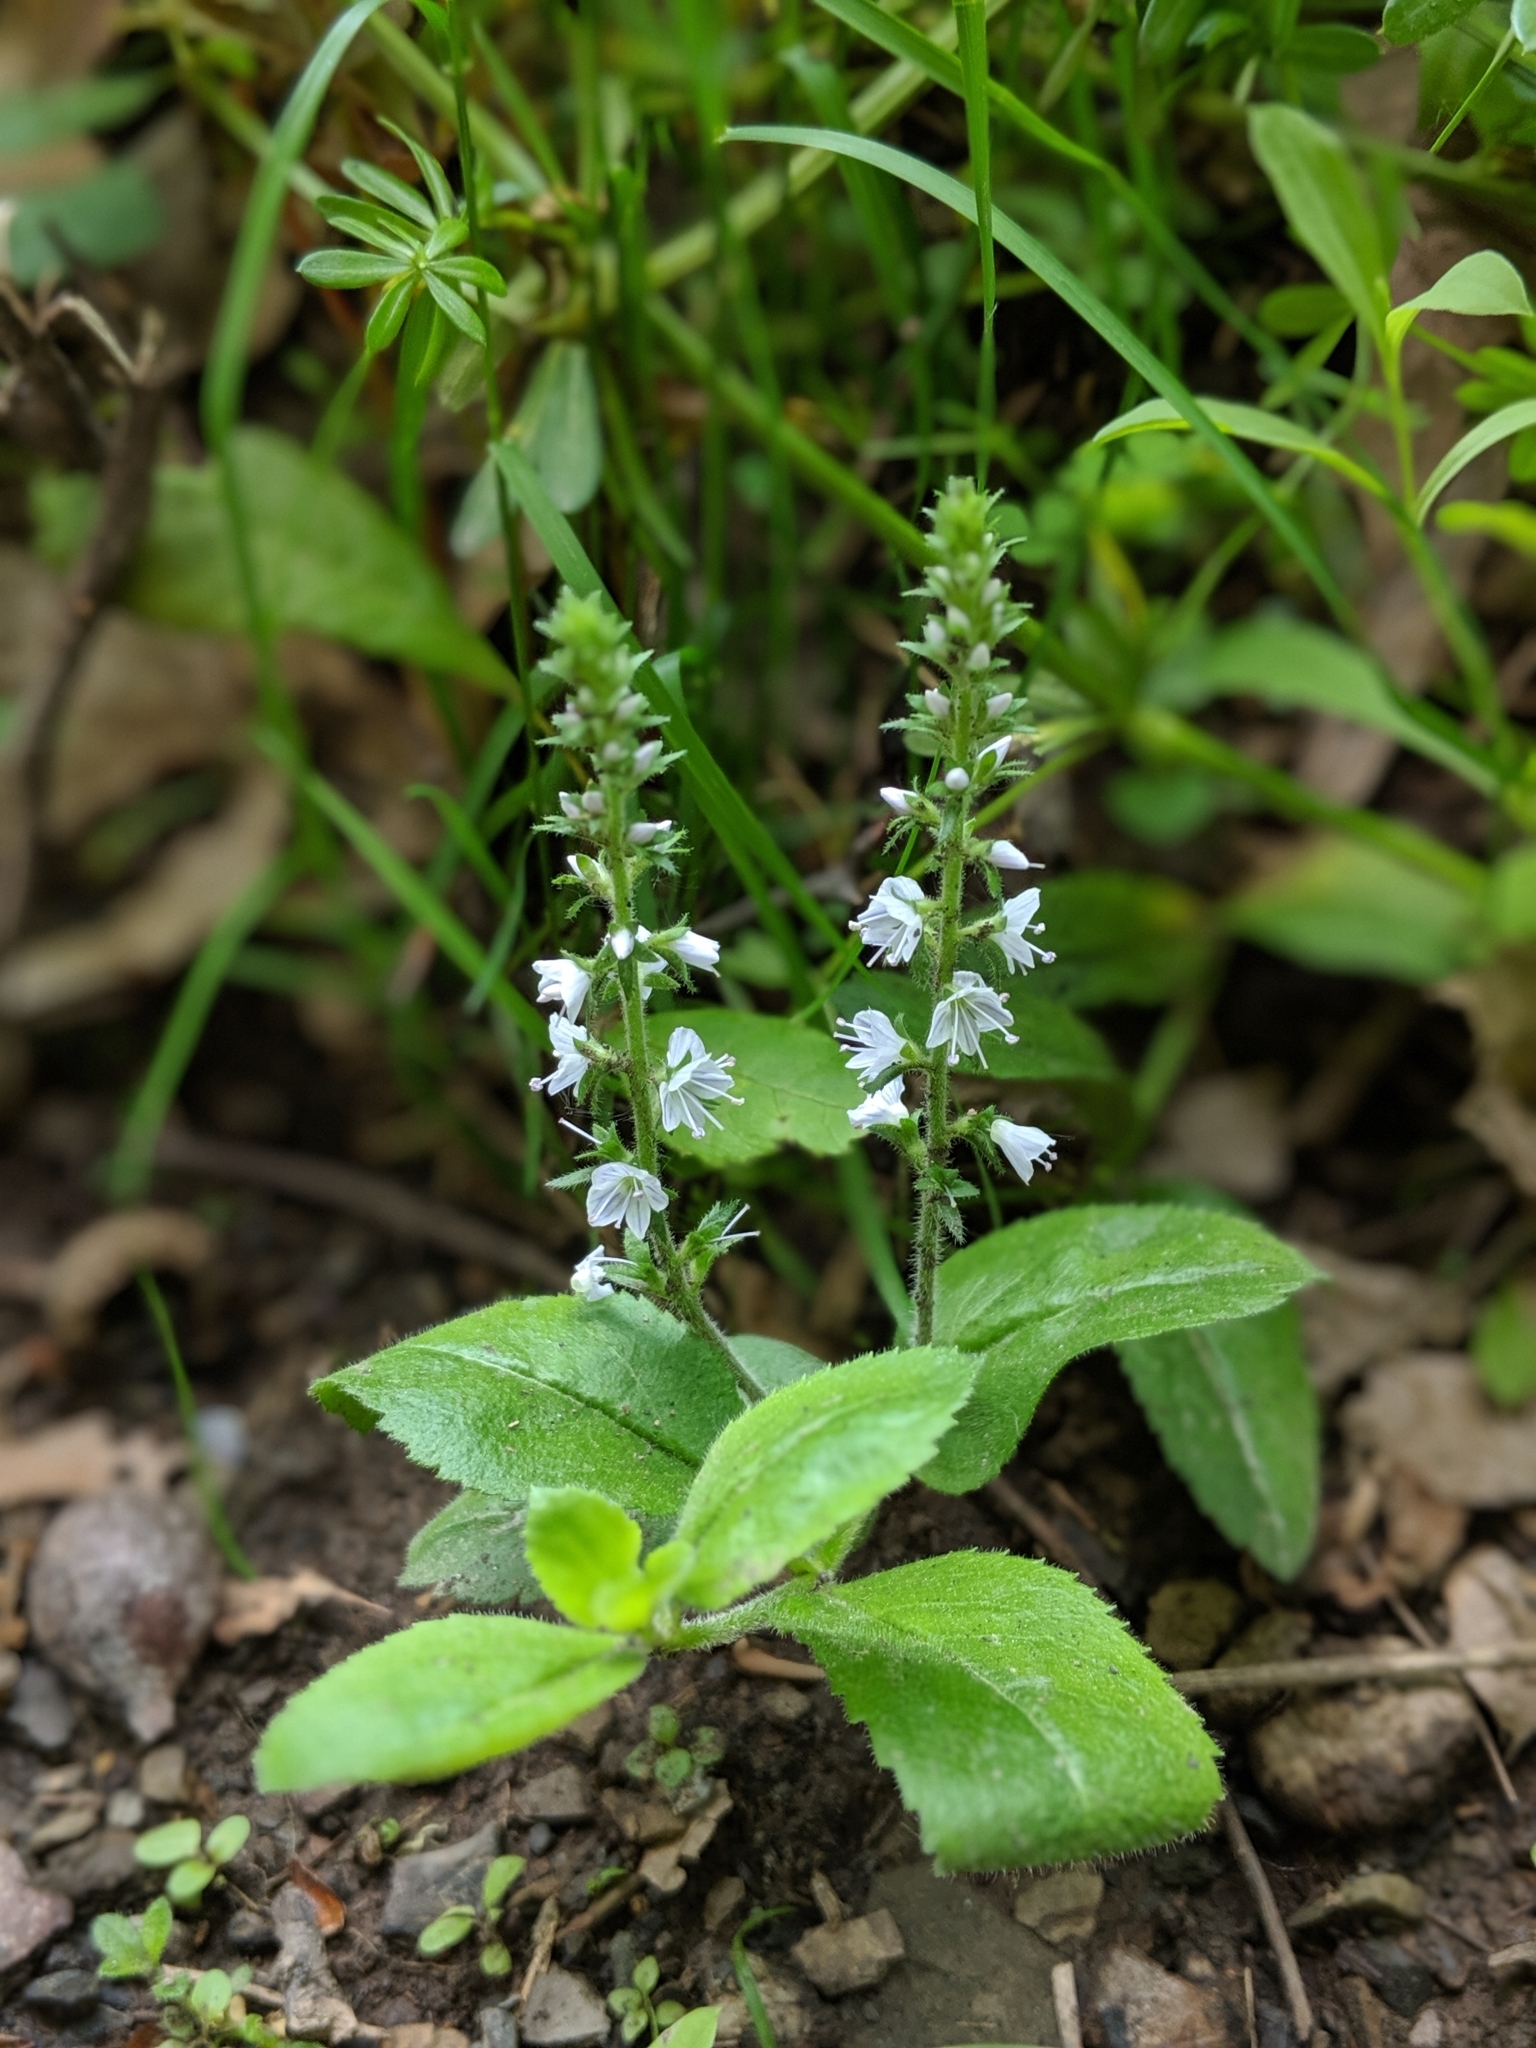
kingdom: Plantae
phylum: Tracheophyta
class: Magnoliopsida
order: Lamiales
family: Plantaginaceae
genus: Veronica
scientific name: Veronica officinalis
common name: Common speedwell
